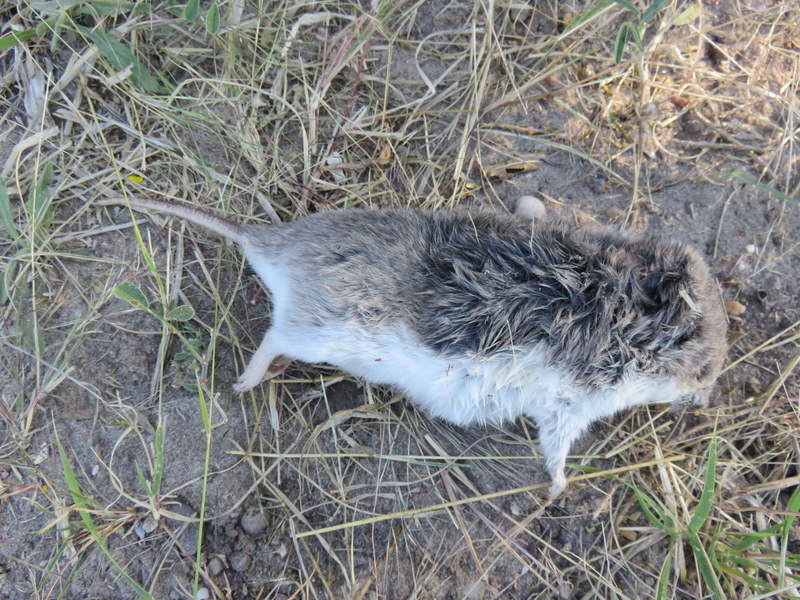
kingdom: Animalia
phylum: Chordata
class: Mammalia
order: Rodentia
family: Nesomyidae
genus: Saccostomus
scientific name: Saccostomus campestris
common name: Southern african pouched mouse
